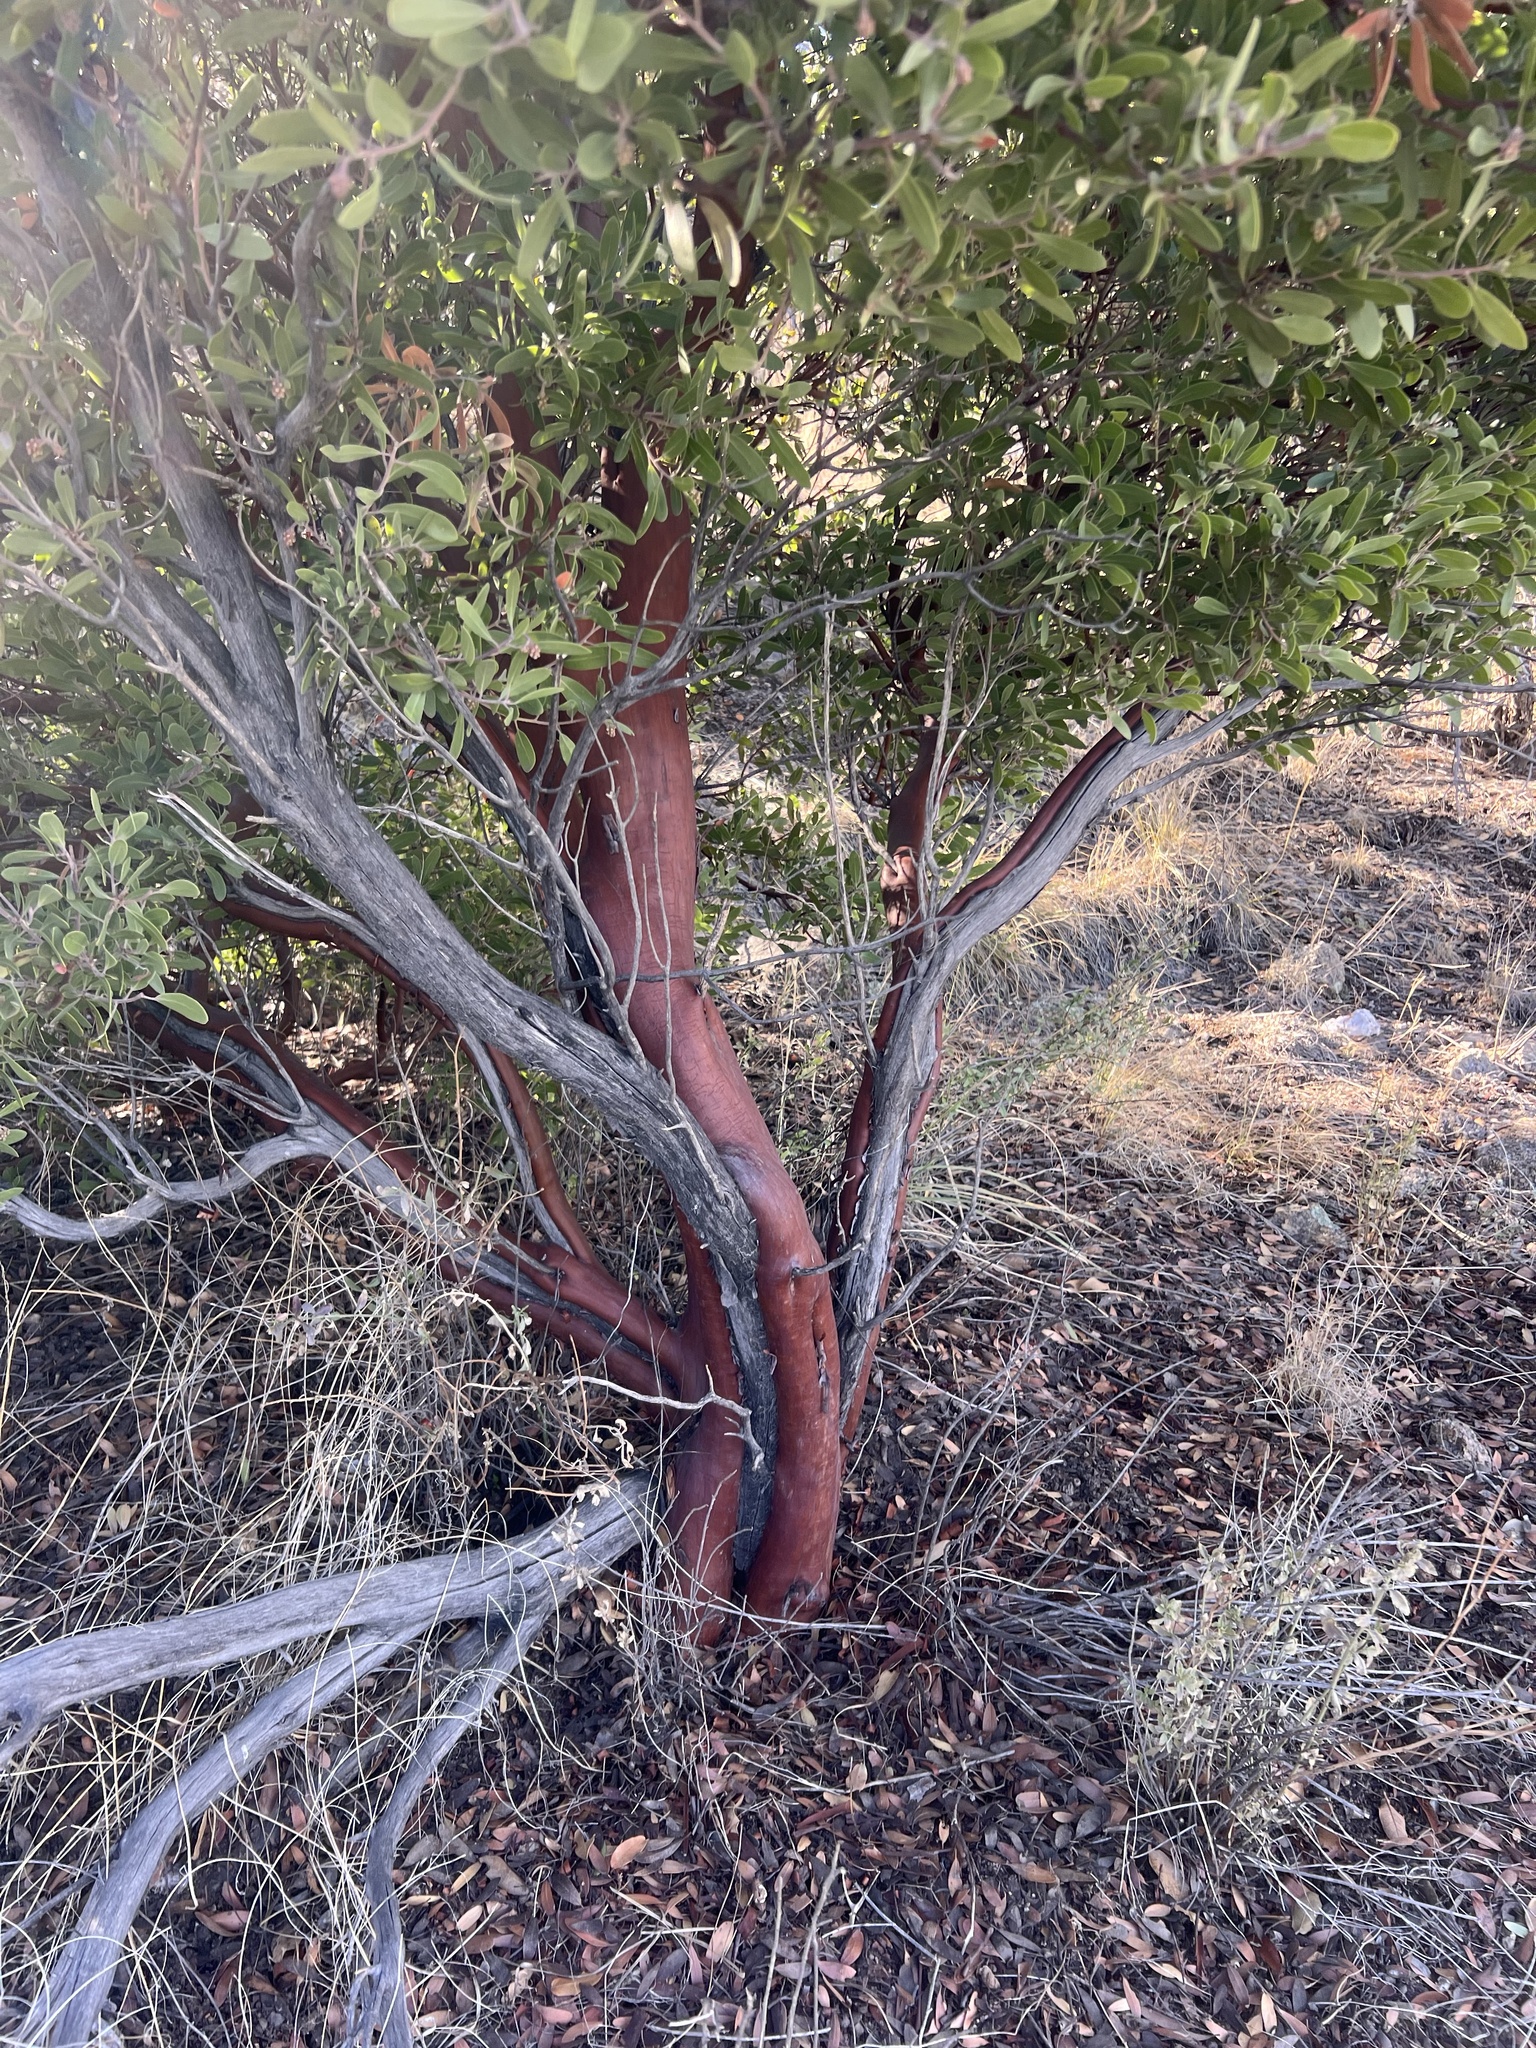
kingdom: Plantae
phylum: Tracheophyta
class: Magnoliopsida
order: Ericales
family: Ericaceae
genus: Arctostaphylos
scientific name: Arctostaphylos pungens
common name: Mexican manzanita
